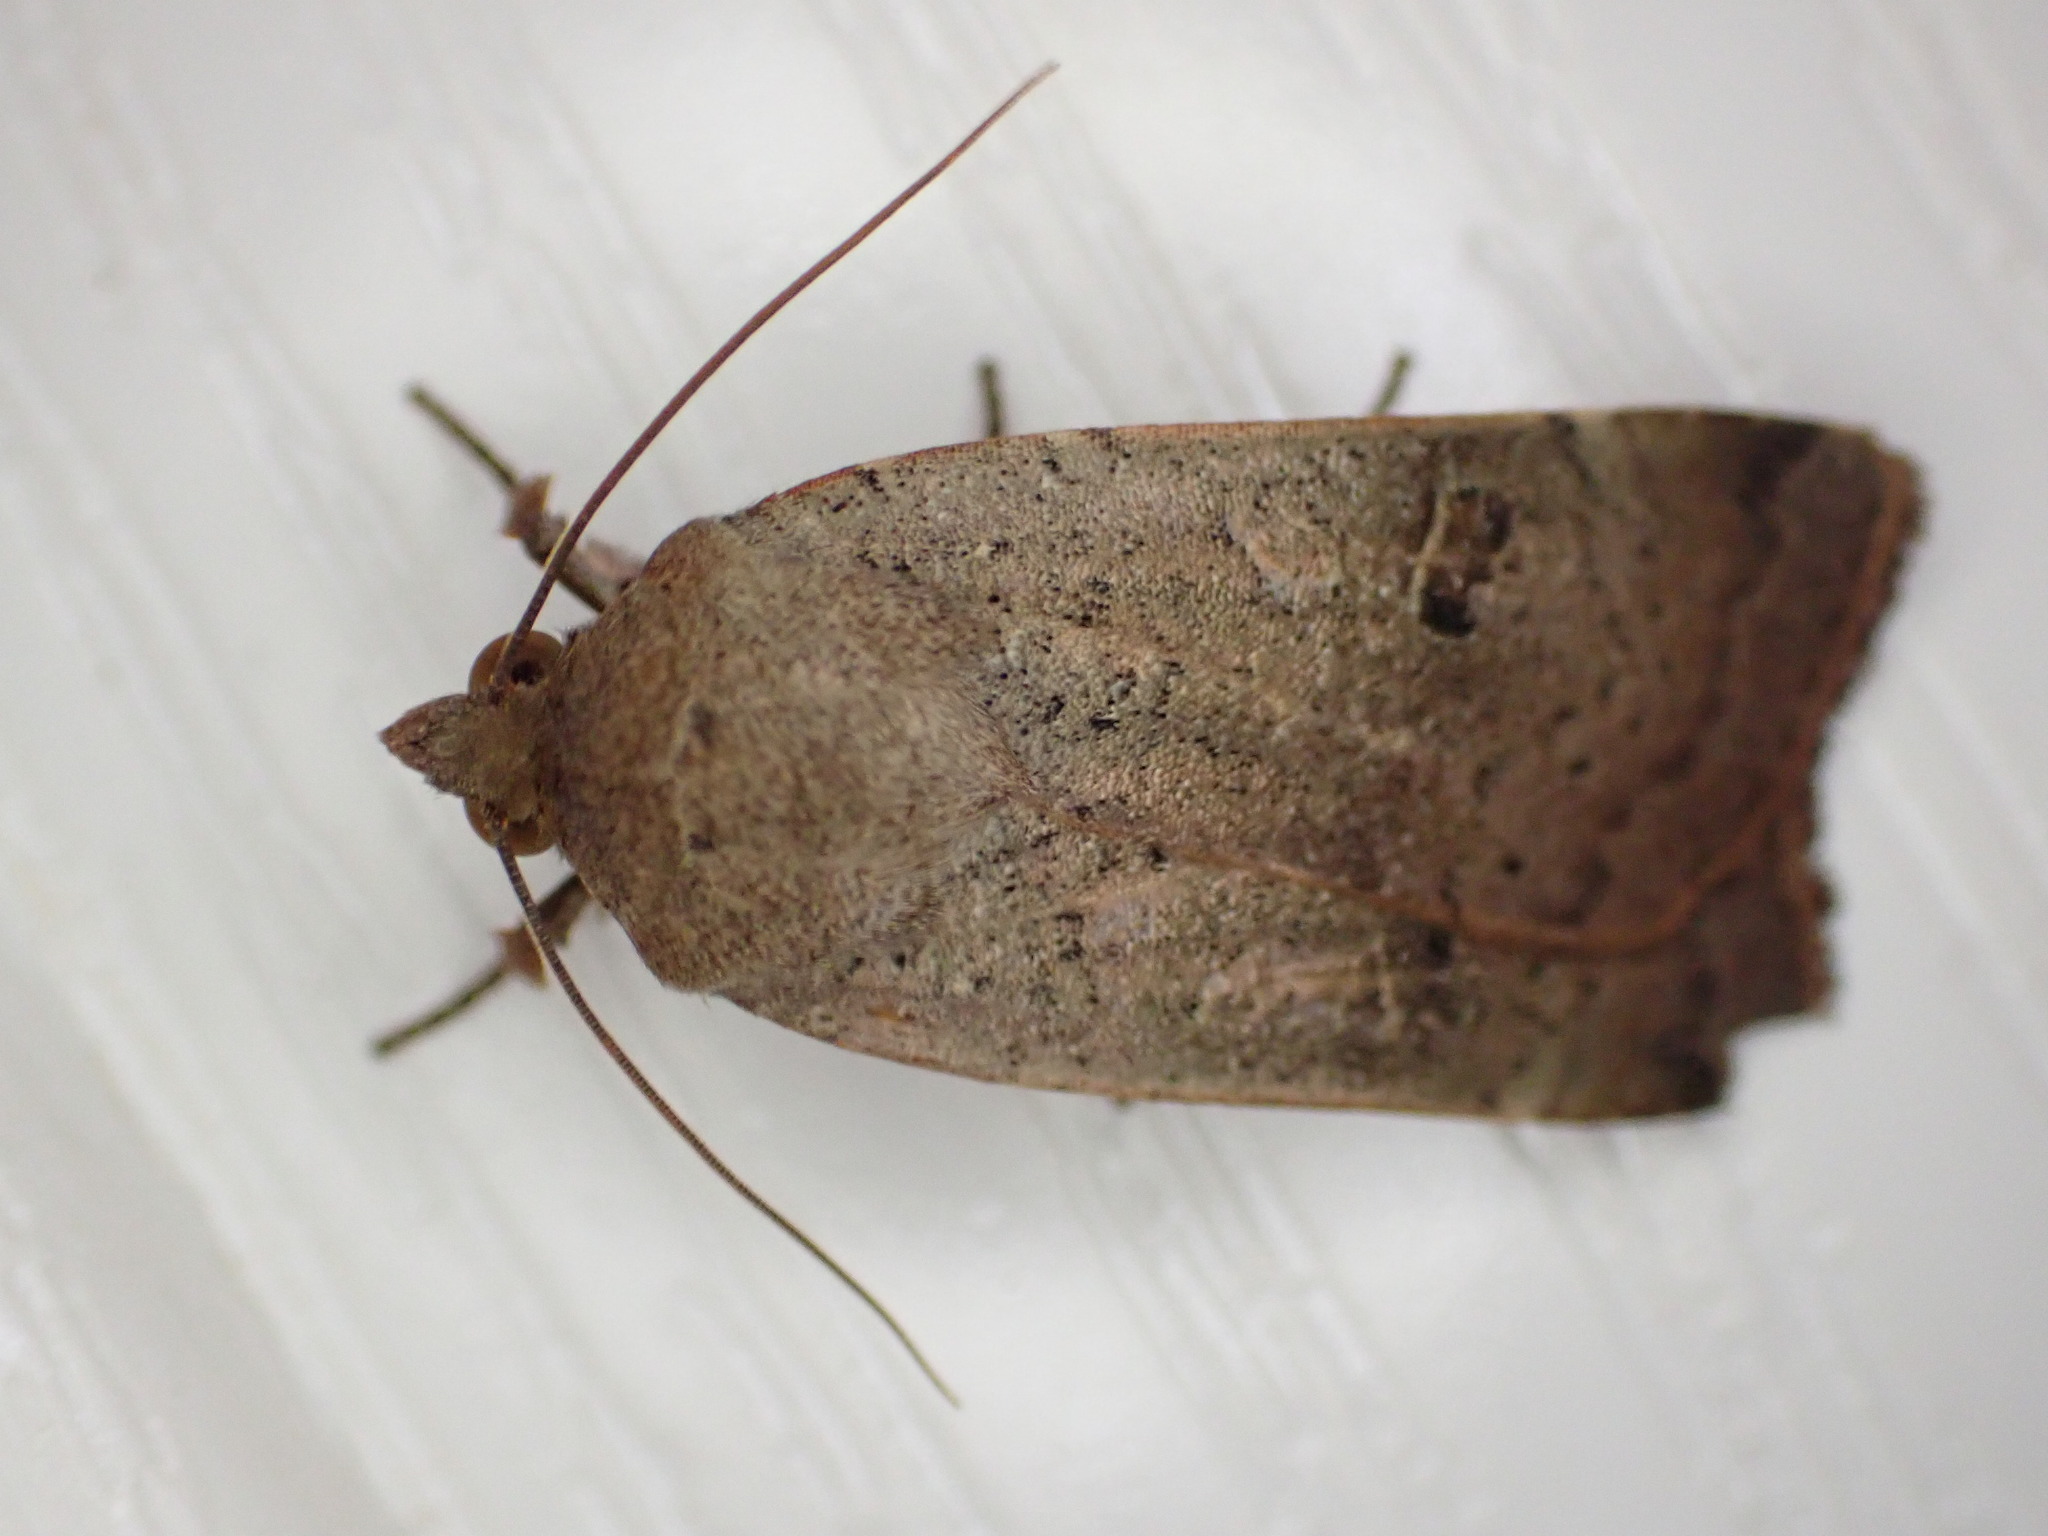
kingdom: Animalia
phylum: Arthropoda
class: Insecta
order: Lepidoptera
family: Noctuidae
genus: Noctua
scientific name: Noctua comes
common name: Lesser yellow underwing
